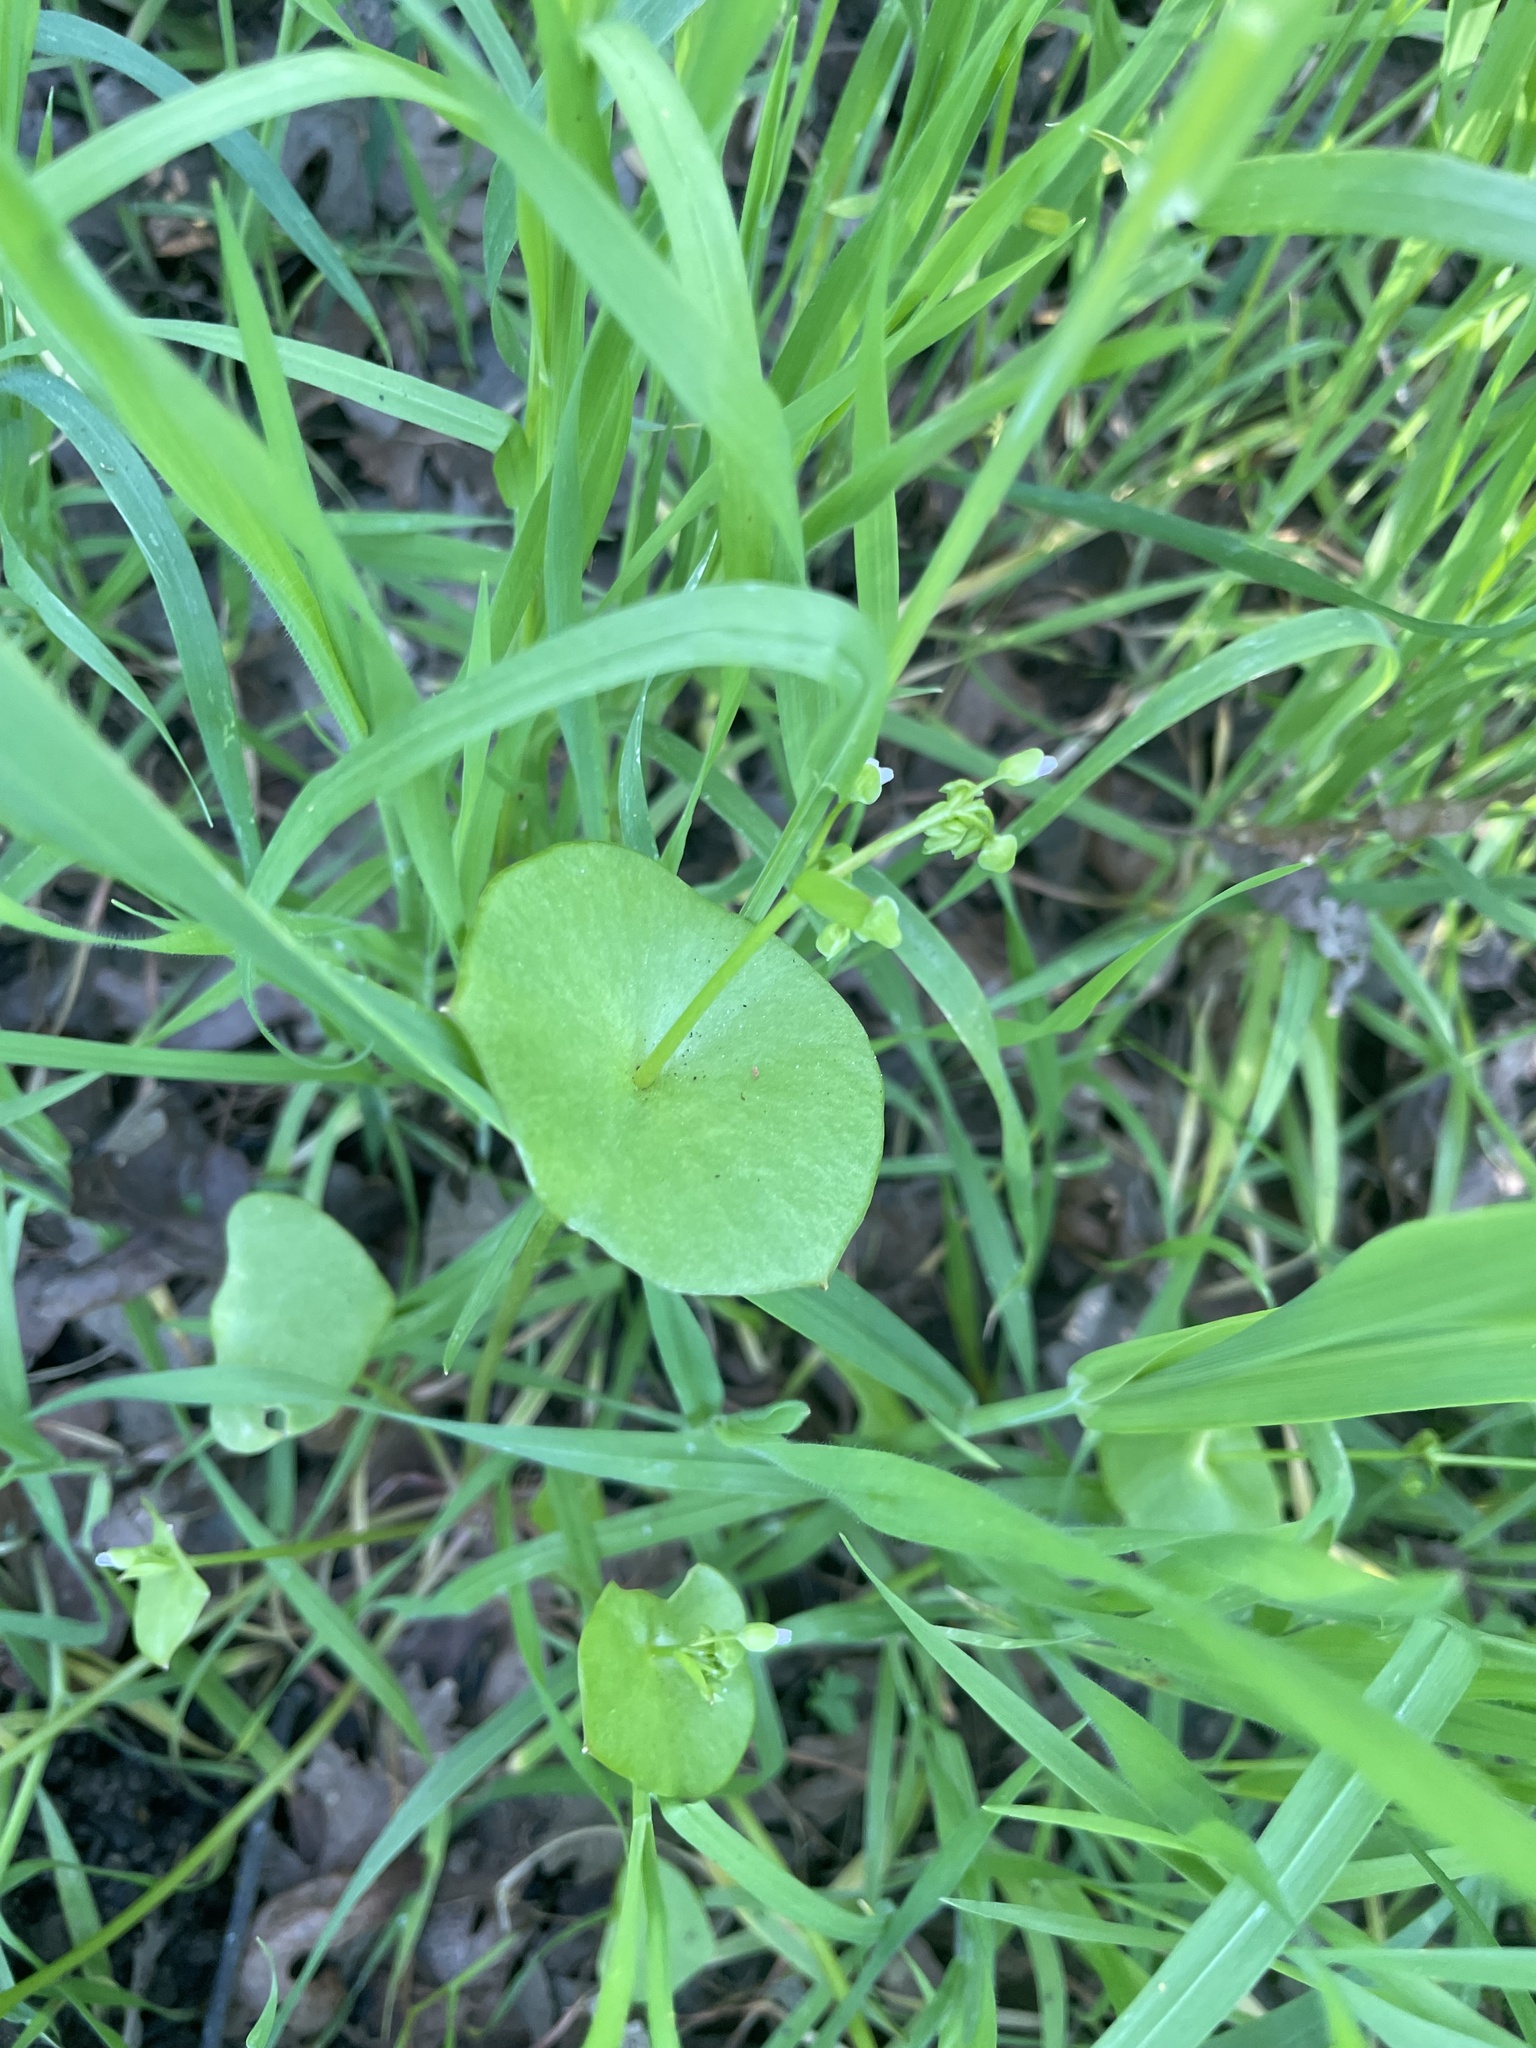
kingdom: Plantae
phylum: Tracheophyta
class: Magnoliopsida
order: Caryophyllales
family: Montiaceae
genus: Claytonia
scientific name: Claytonia perfoliata
